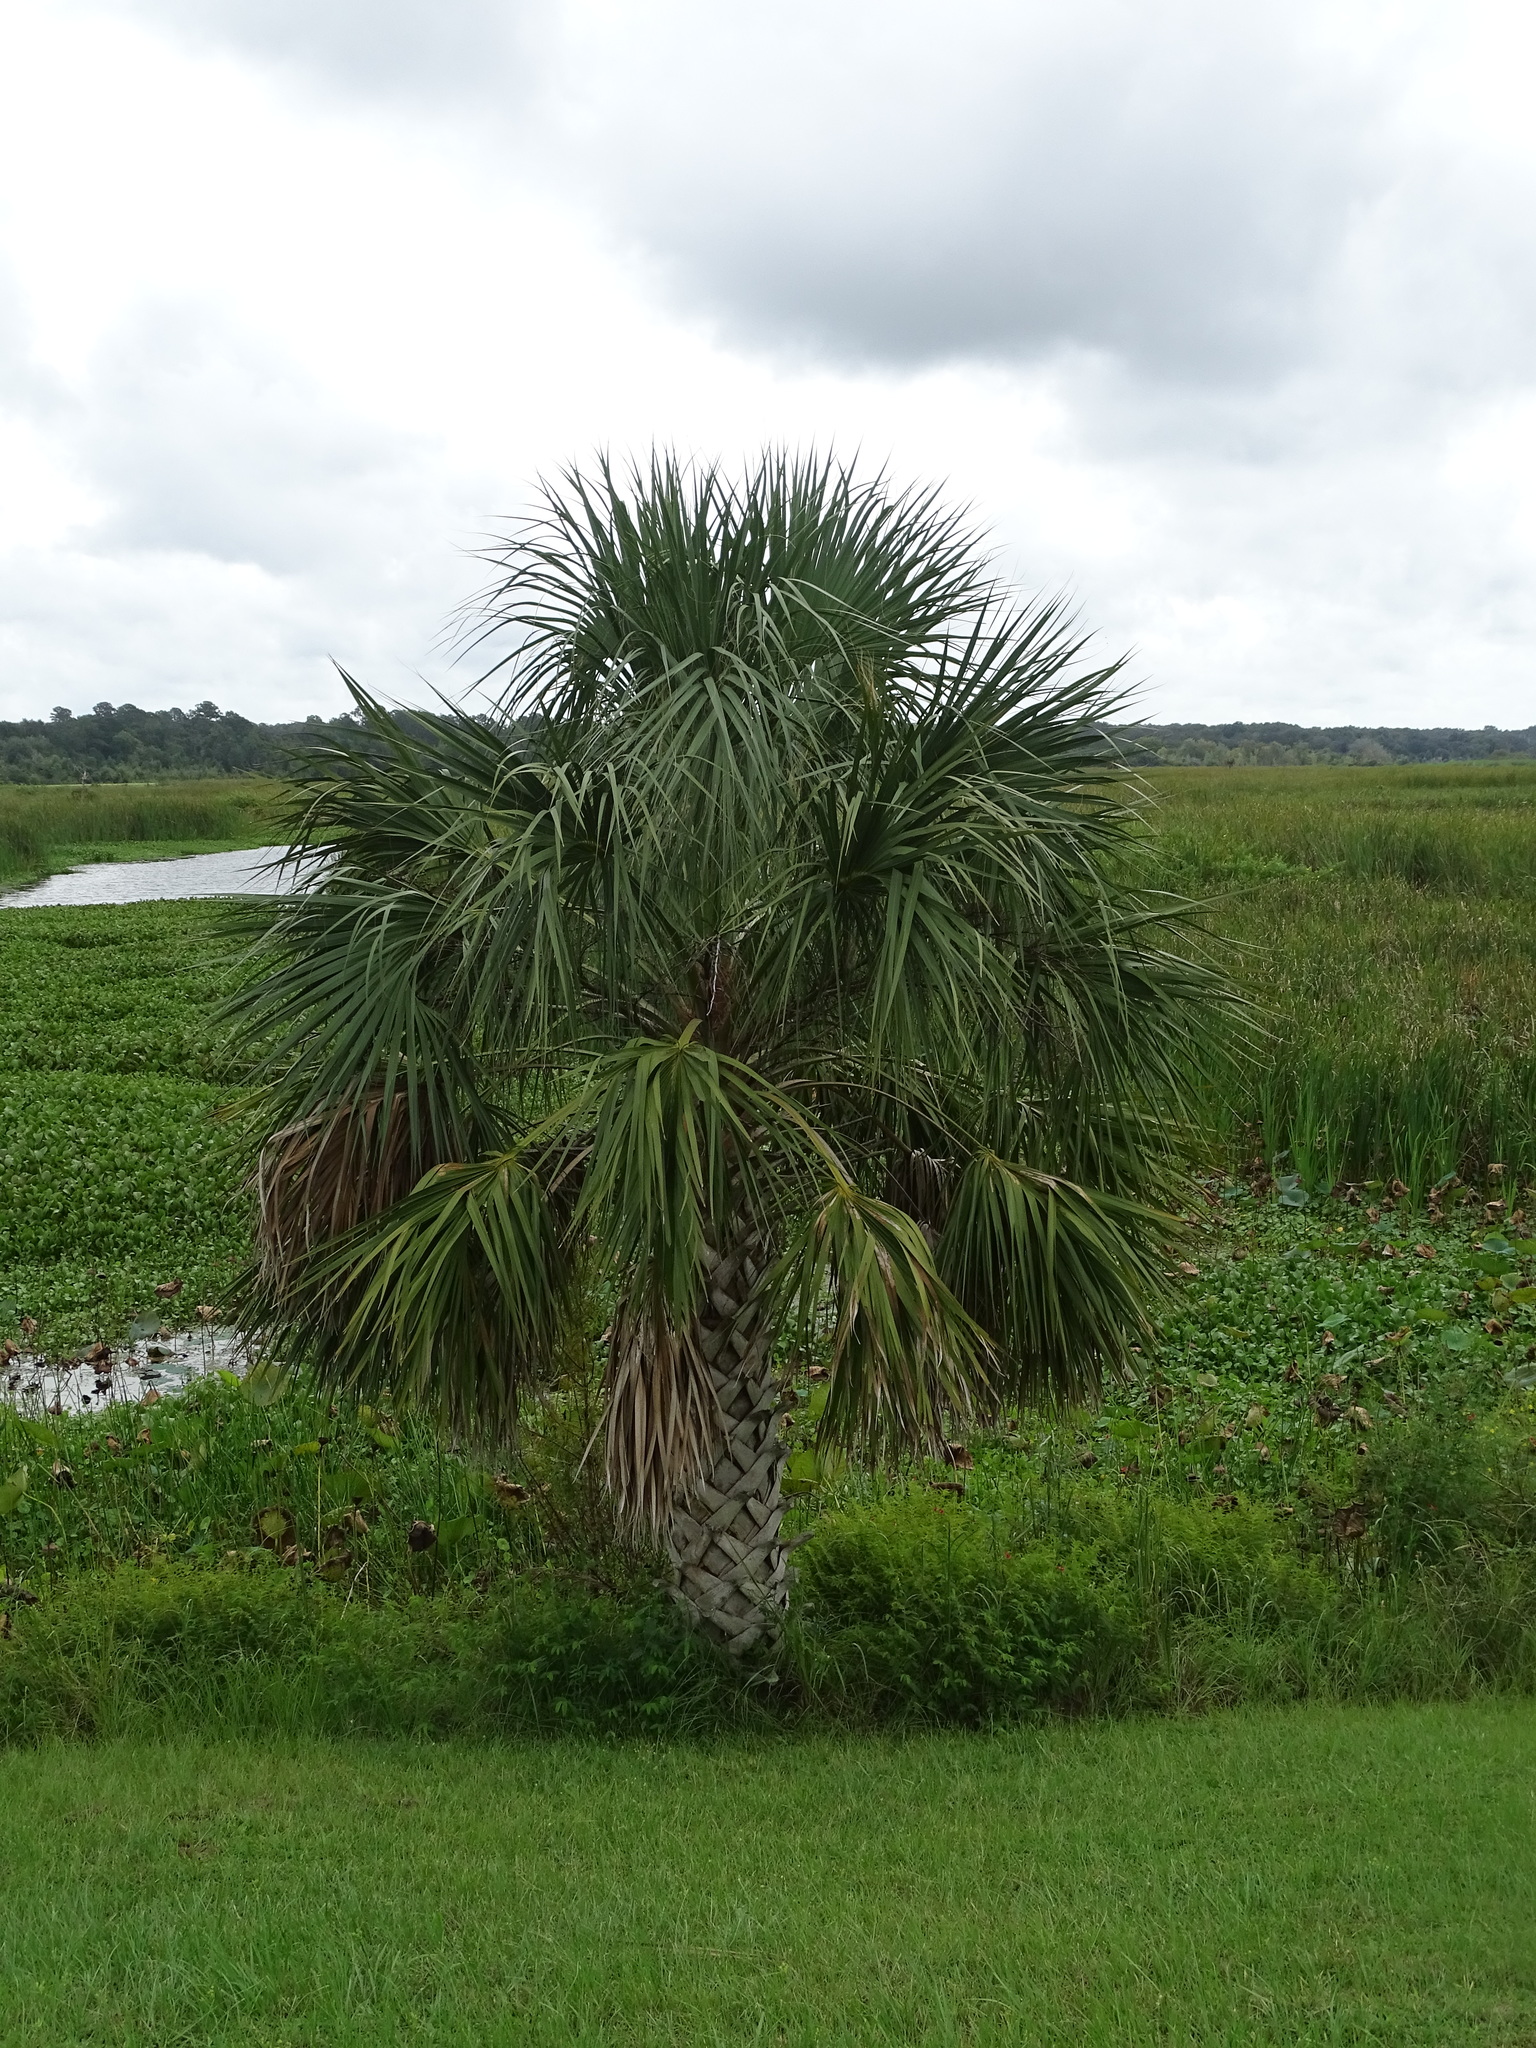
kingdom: Plantae
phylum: Tracheophyta
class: Liliopsida
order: Arecales
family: Arecaceae
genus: Sabal
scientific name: Sabal palmetto
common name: Blue palmetto
